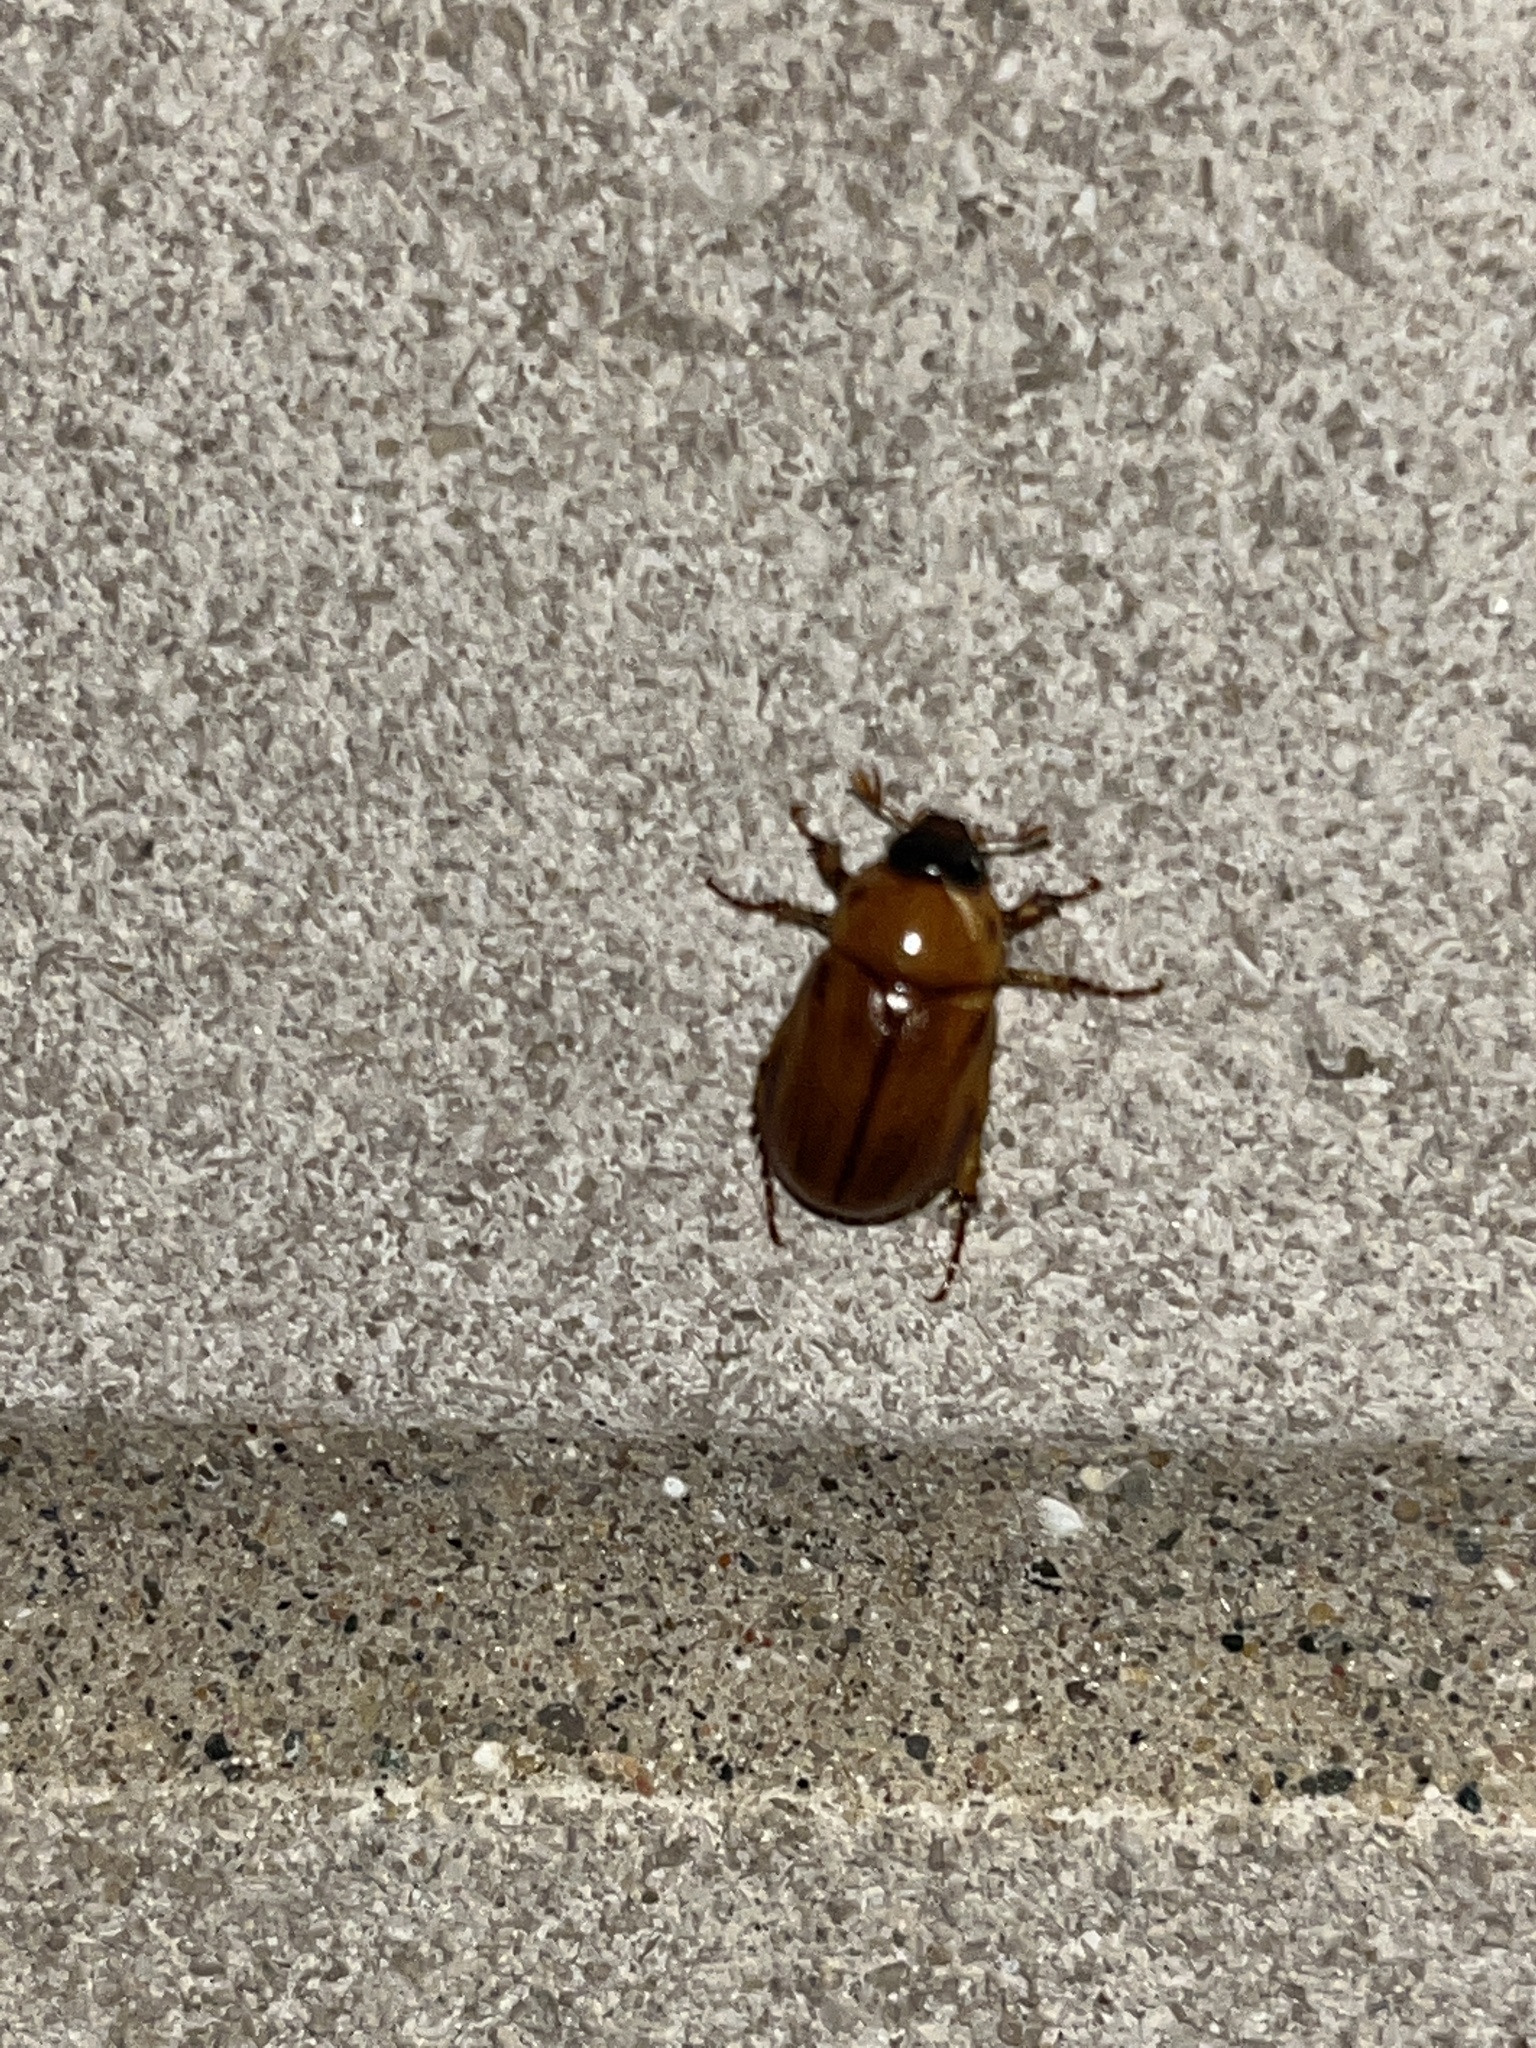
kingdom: Animalia
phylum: Arthropoda
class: Insecta
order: Coleoptera
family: Scarabaeidae
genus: Cyclocephala
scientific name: Cyclocephala lurida
